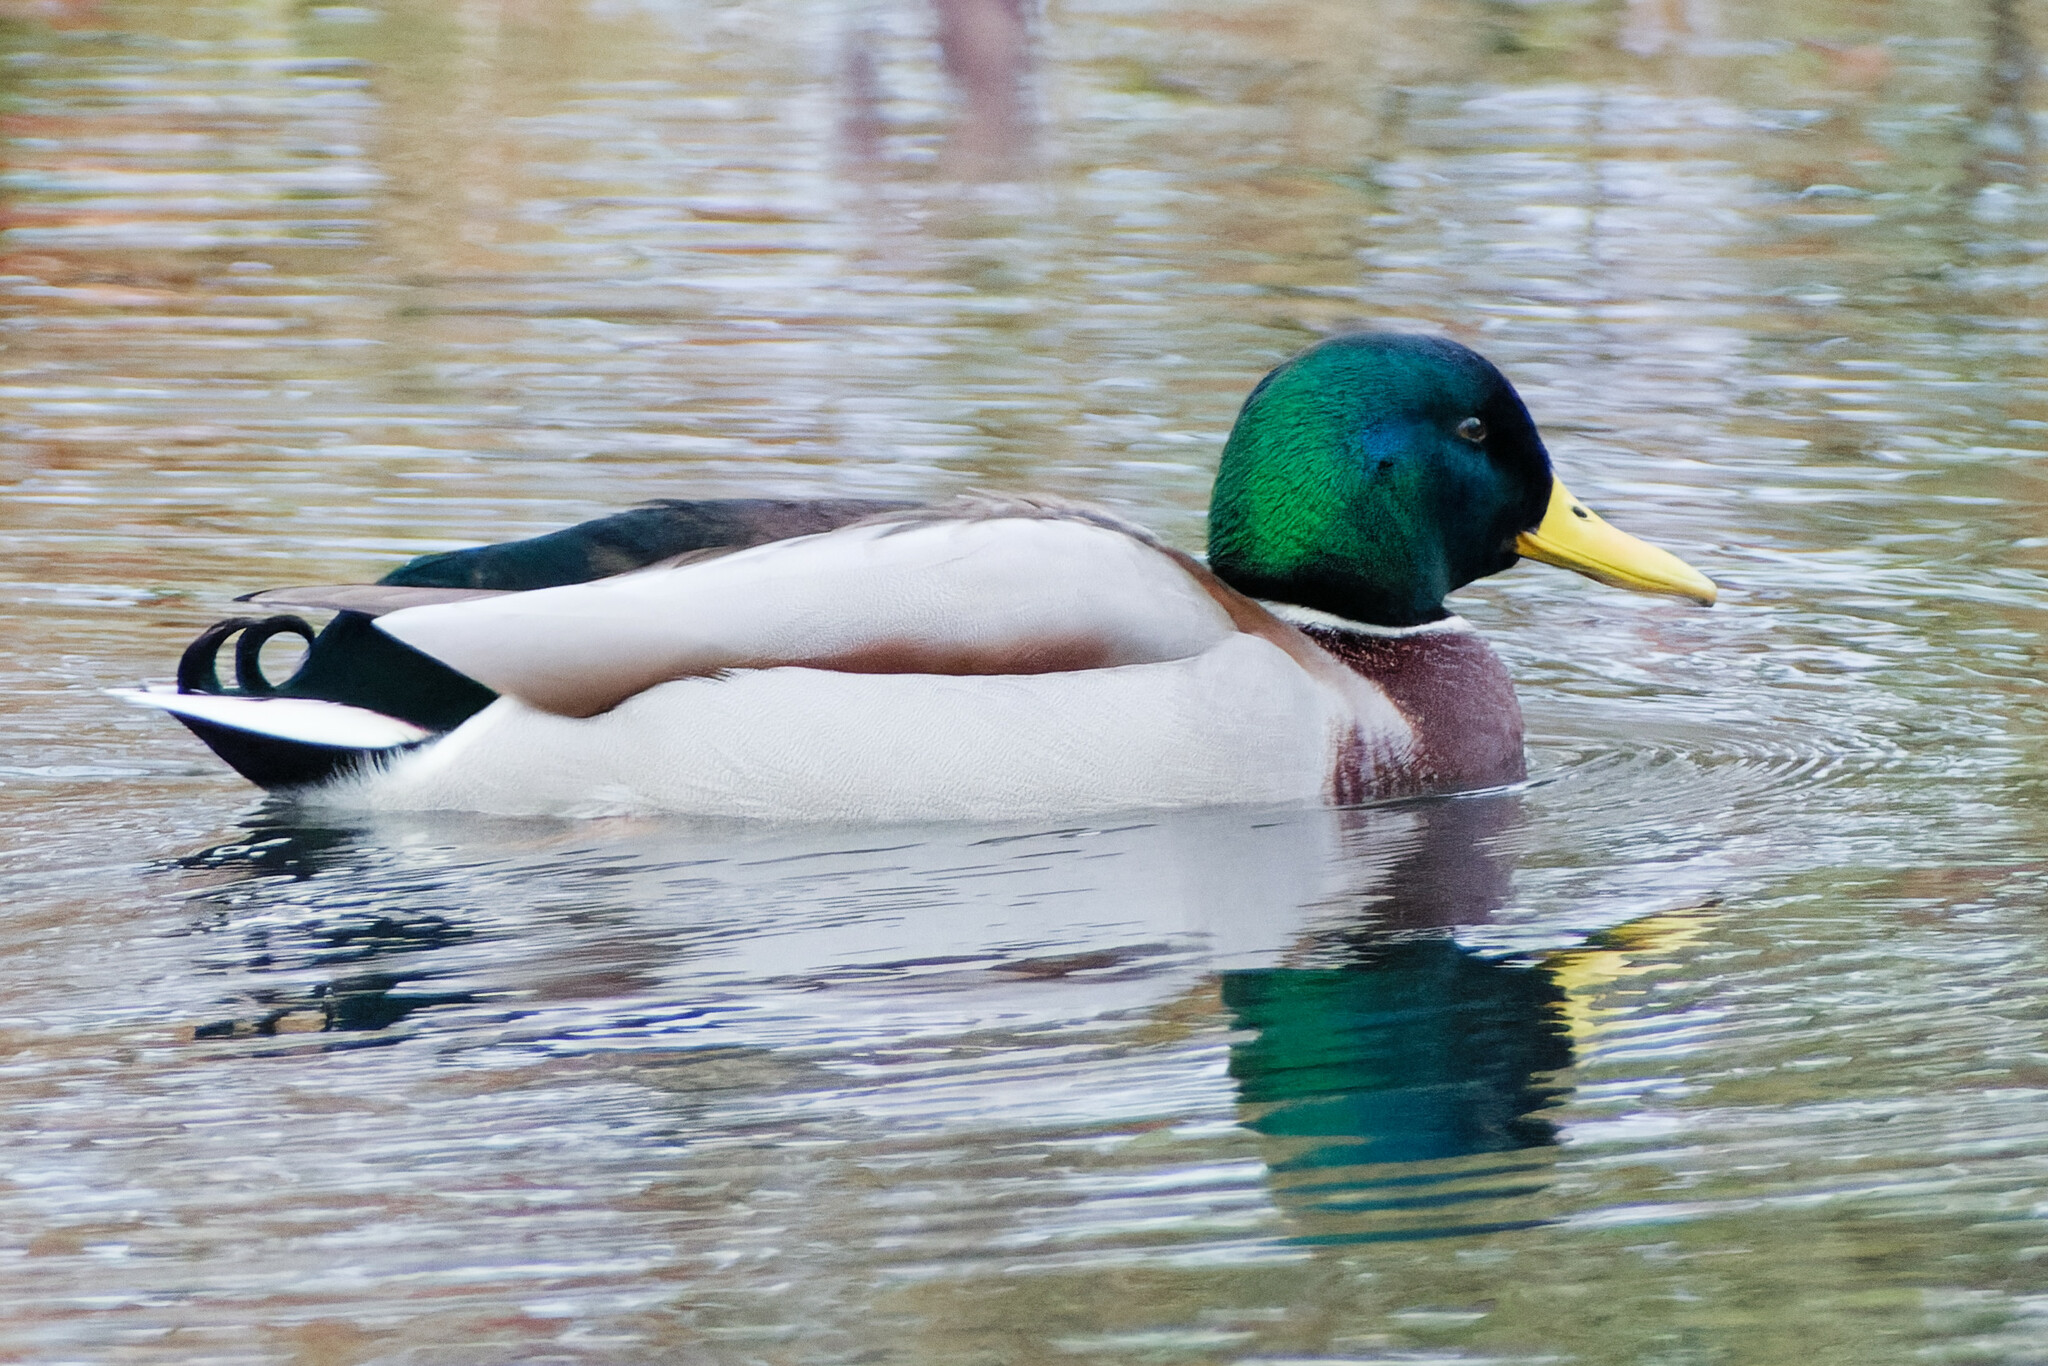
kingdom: Animalia
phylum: Chordata
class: Aves
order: Anseriformes
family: Anatidae
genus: Anas
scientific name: Anas platyrhynchos
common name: Mallard
